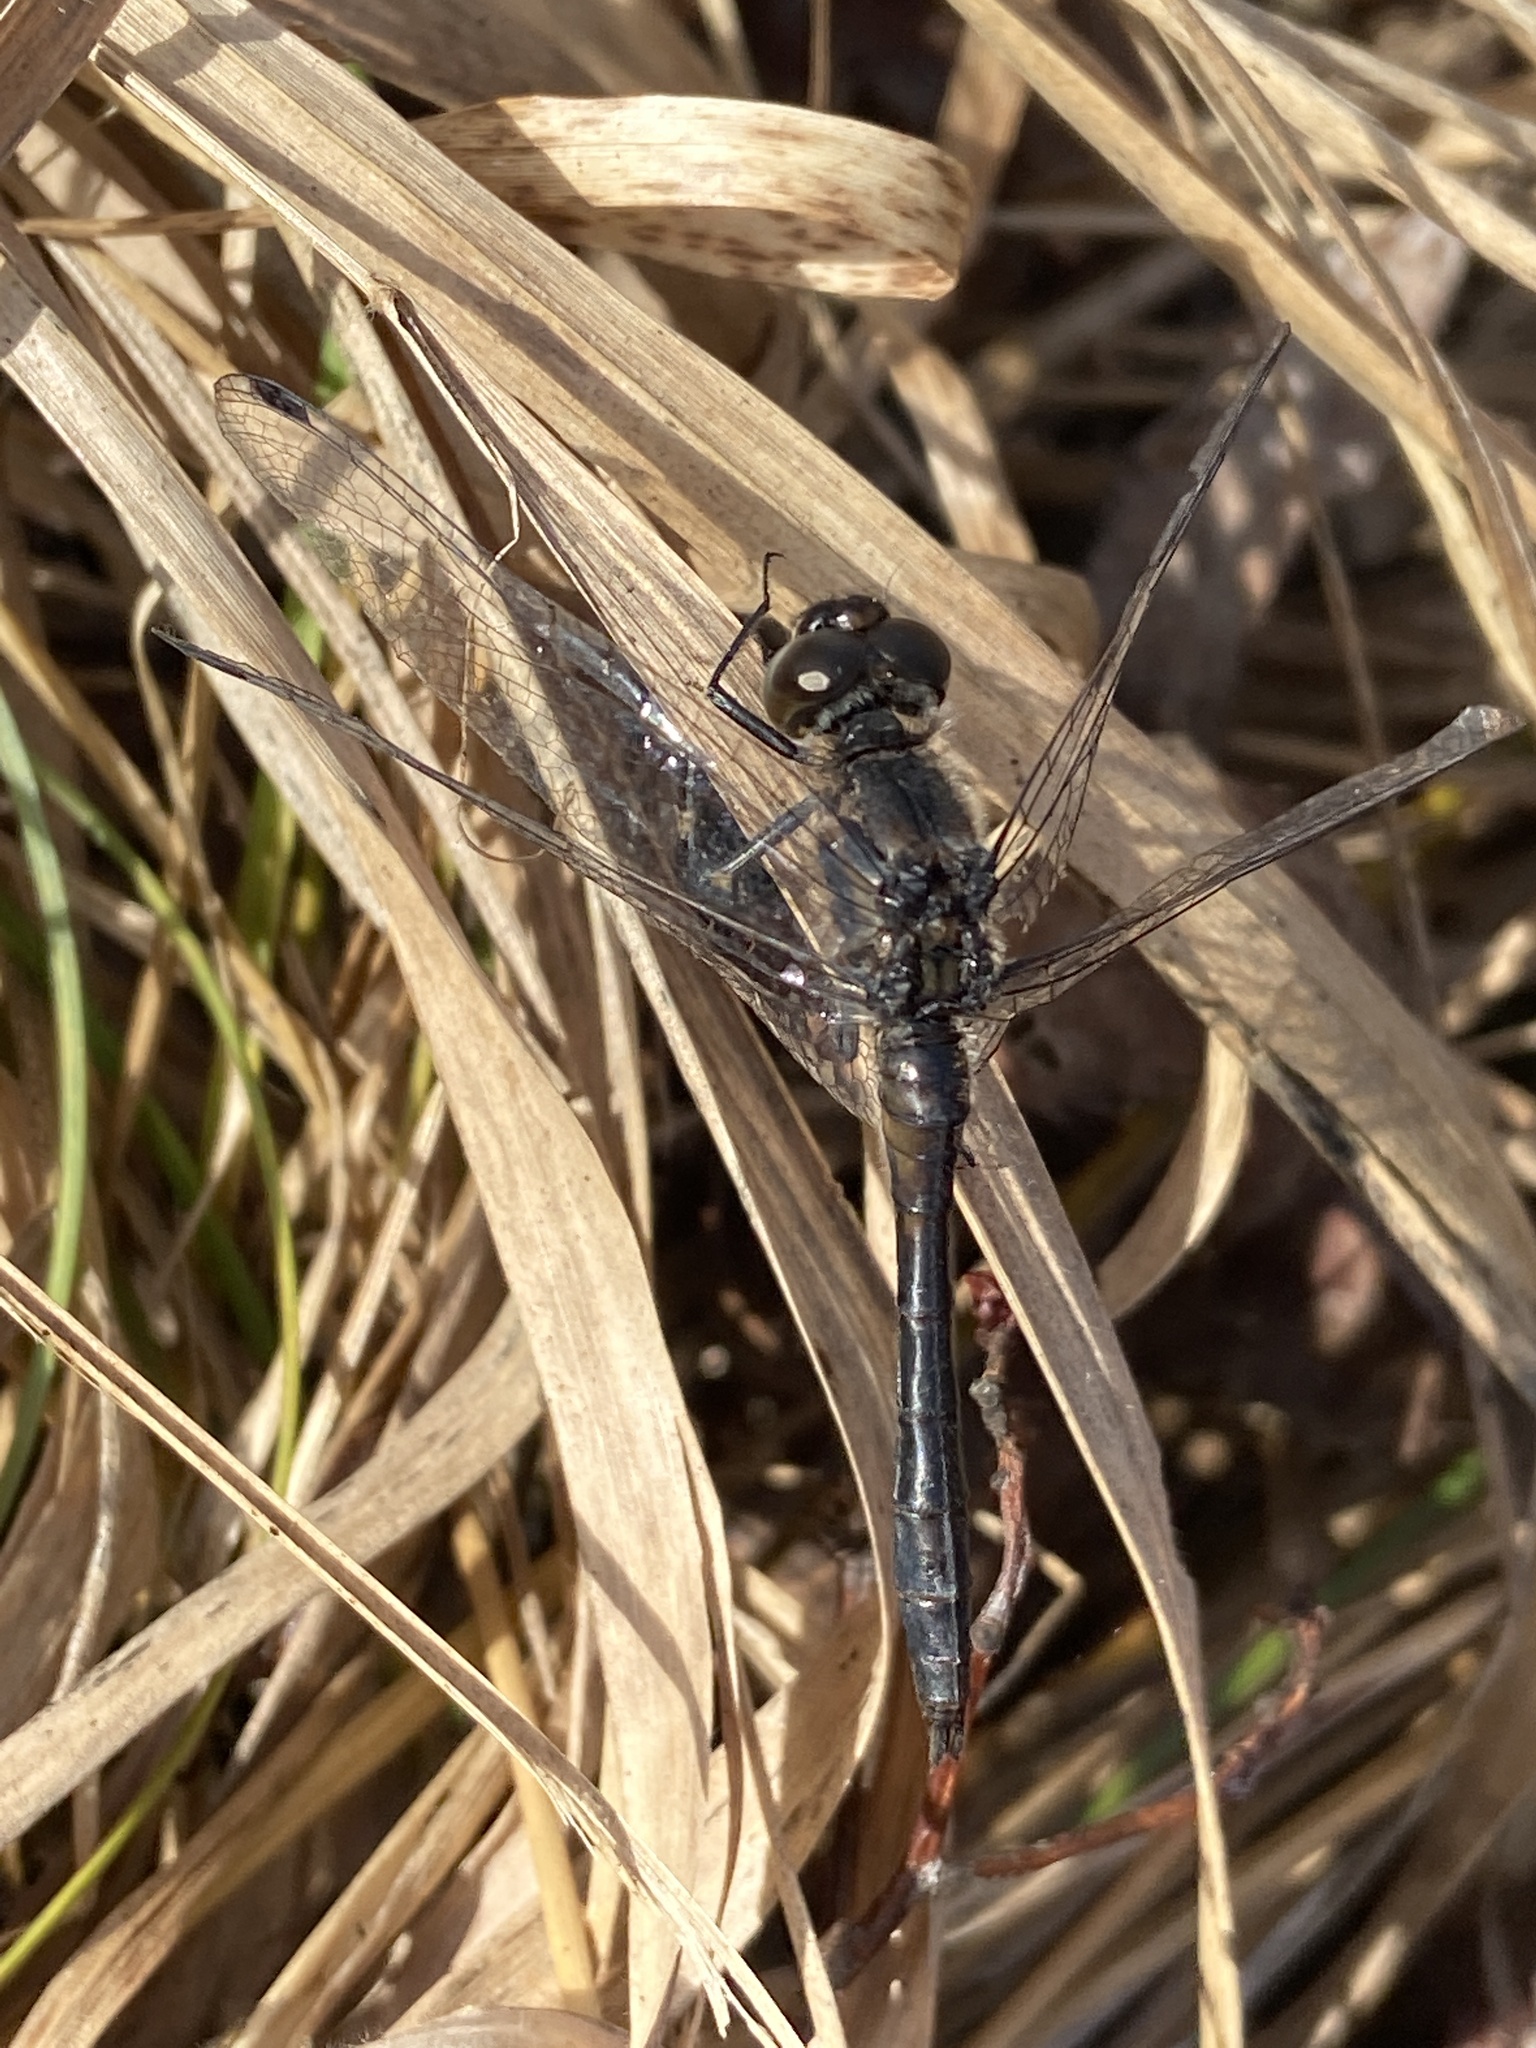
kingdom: Animalia
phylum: Arthropoda
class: Insecta
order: Odonata
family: Libellulidae
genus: Sympetrum
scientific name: Sympetrum danae
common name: Black darter
